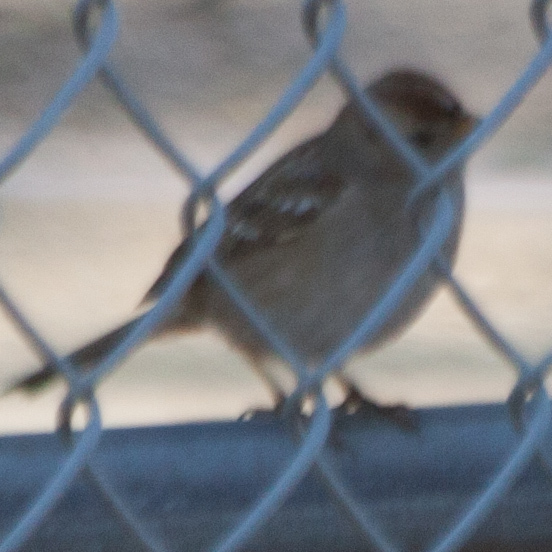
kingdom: Animalia
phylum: Chordata
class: Aves
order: Passeriformes
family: Passerellidae
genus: Zonotrichia
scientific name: Zonotrichia leucophrys
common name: White-crowned sparrow
